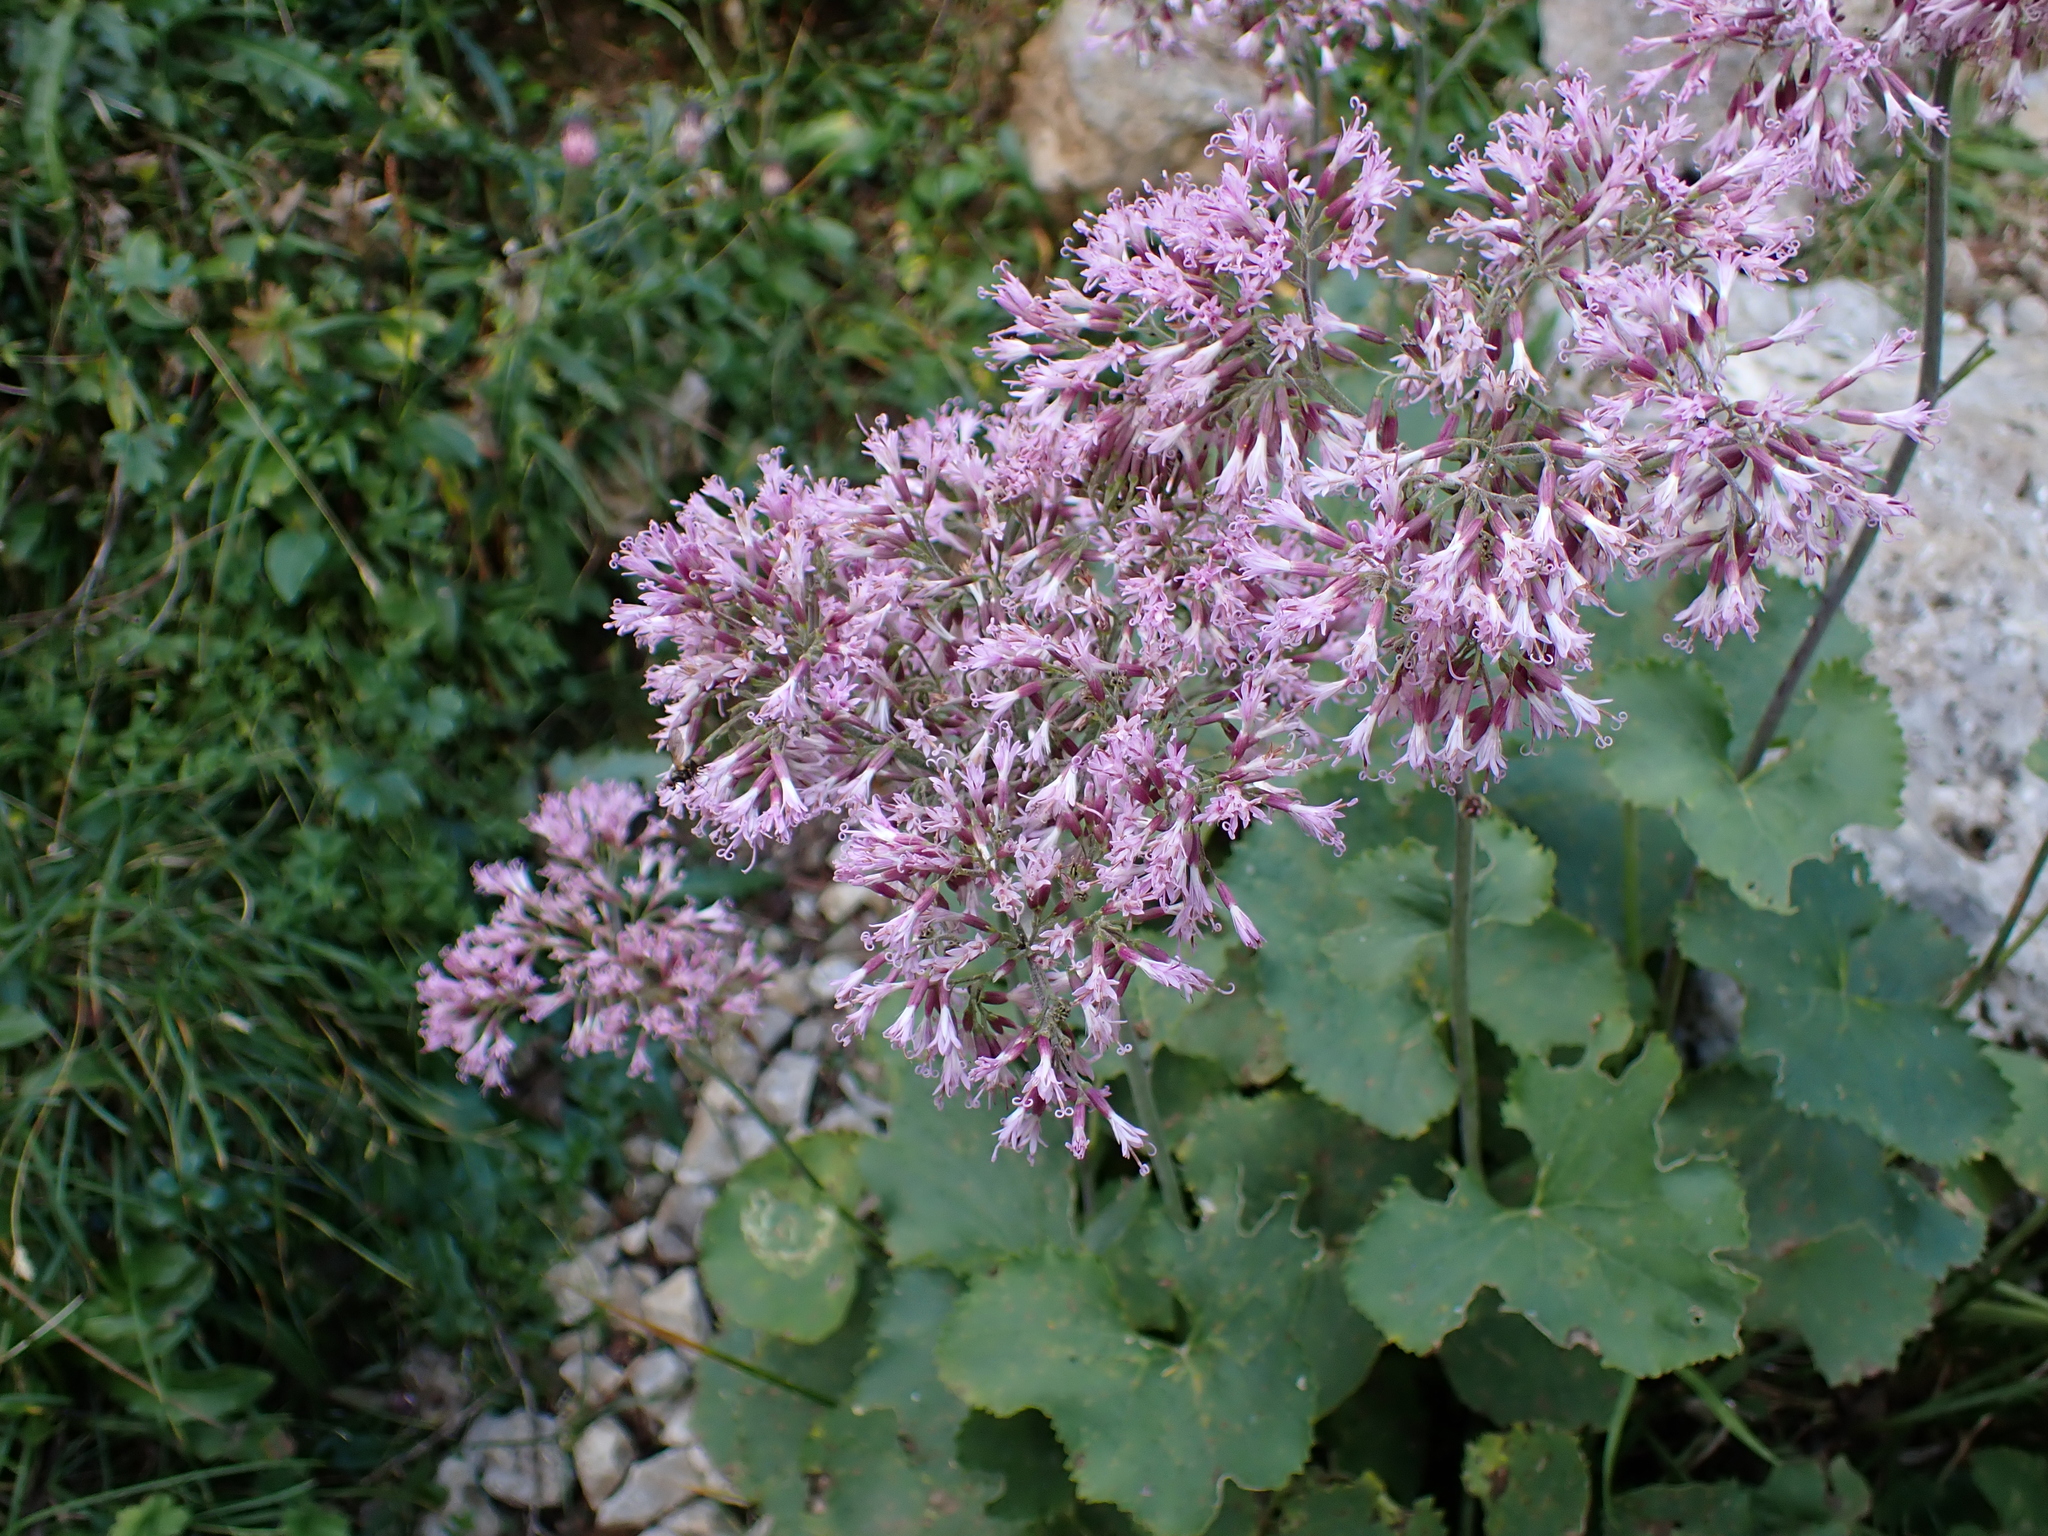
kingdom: Plantae
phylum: Tracheophyta
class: Magnoliopsida
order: Asterales
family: Asteraceae
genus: Adenostyles
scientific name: Adenostyles alpina
